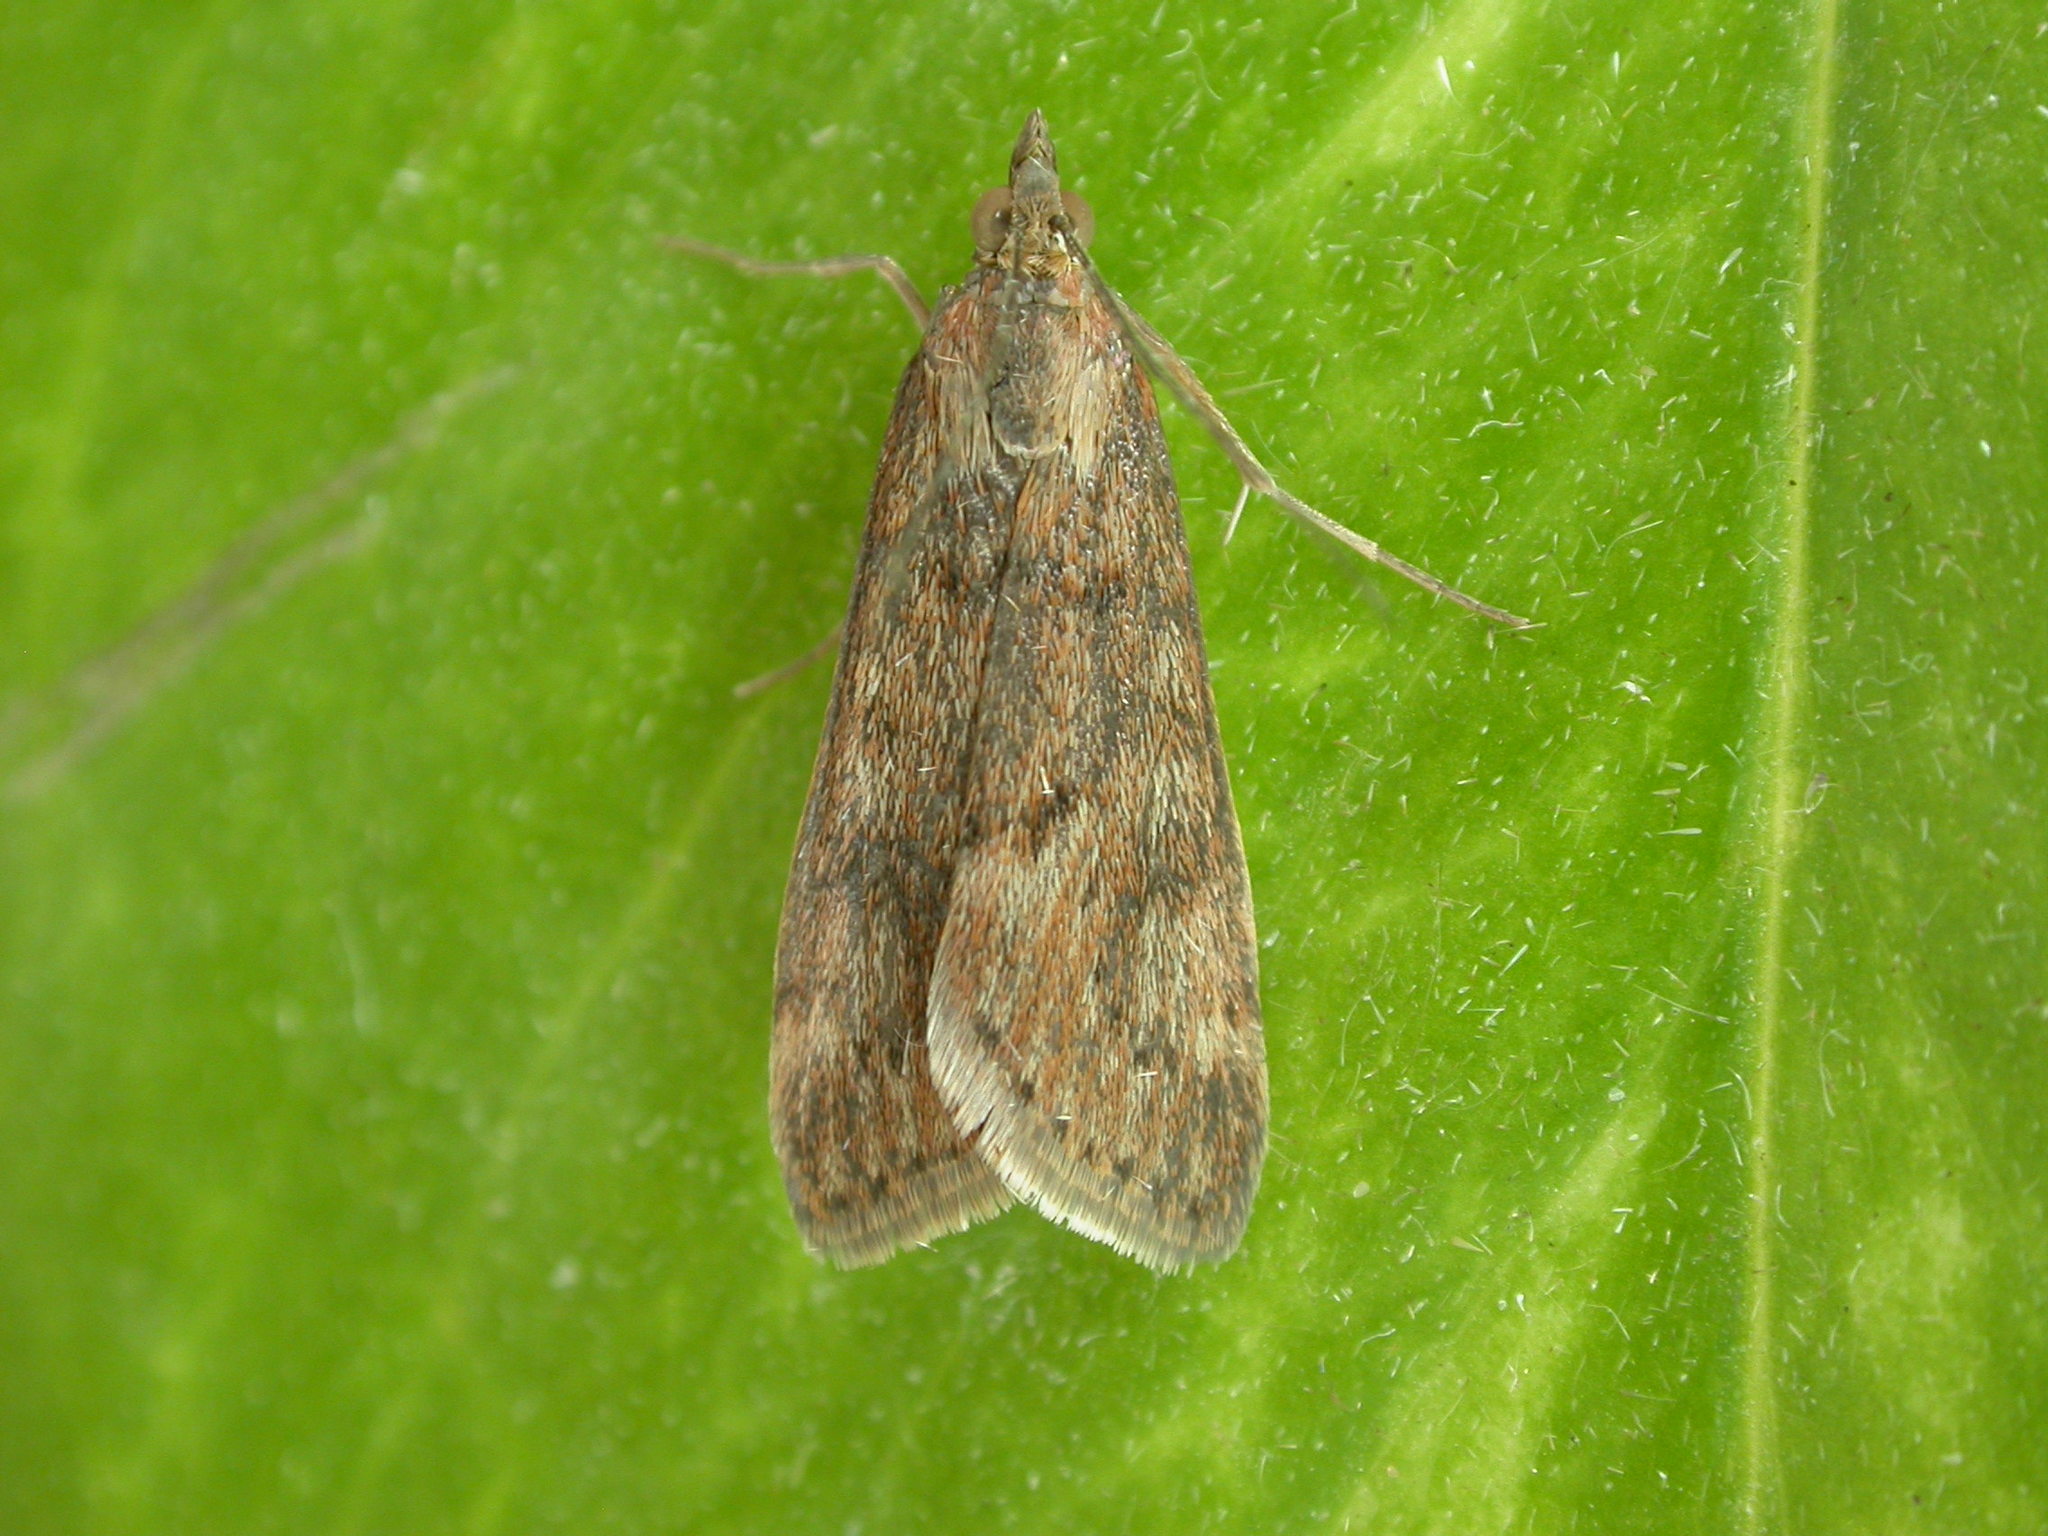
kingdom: Animalia
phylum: Arthropoda
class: Insecta
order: Lepidoptera
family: Crambidae
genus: Achyra
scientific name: Achyra affinitalis
